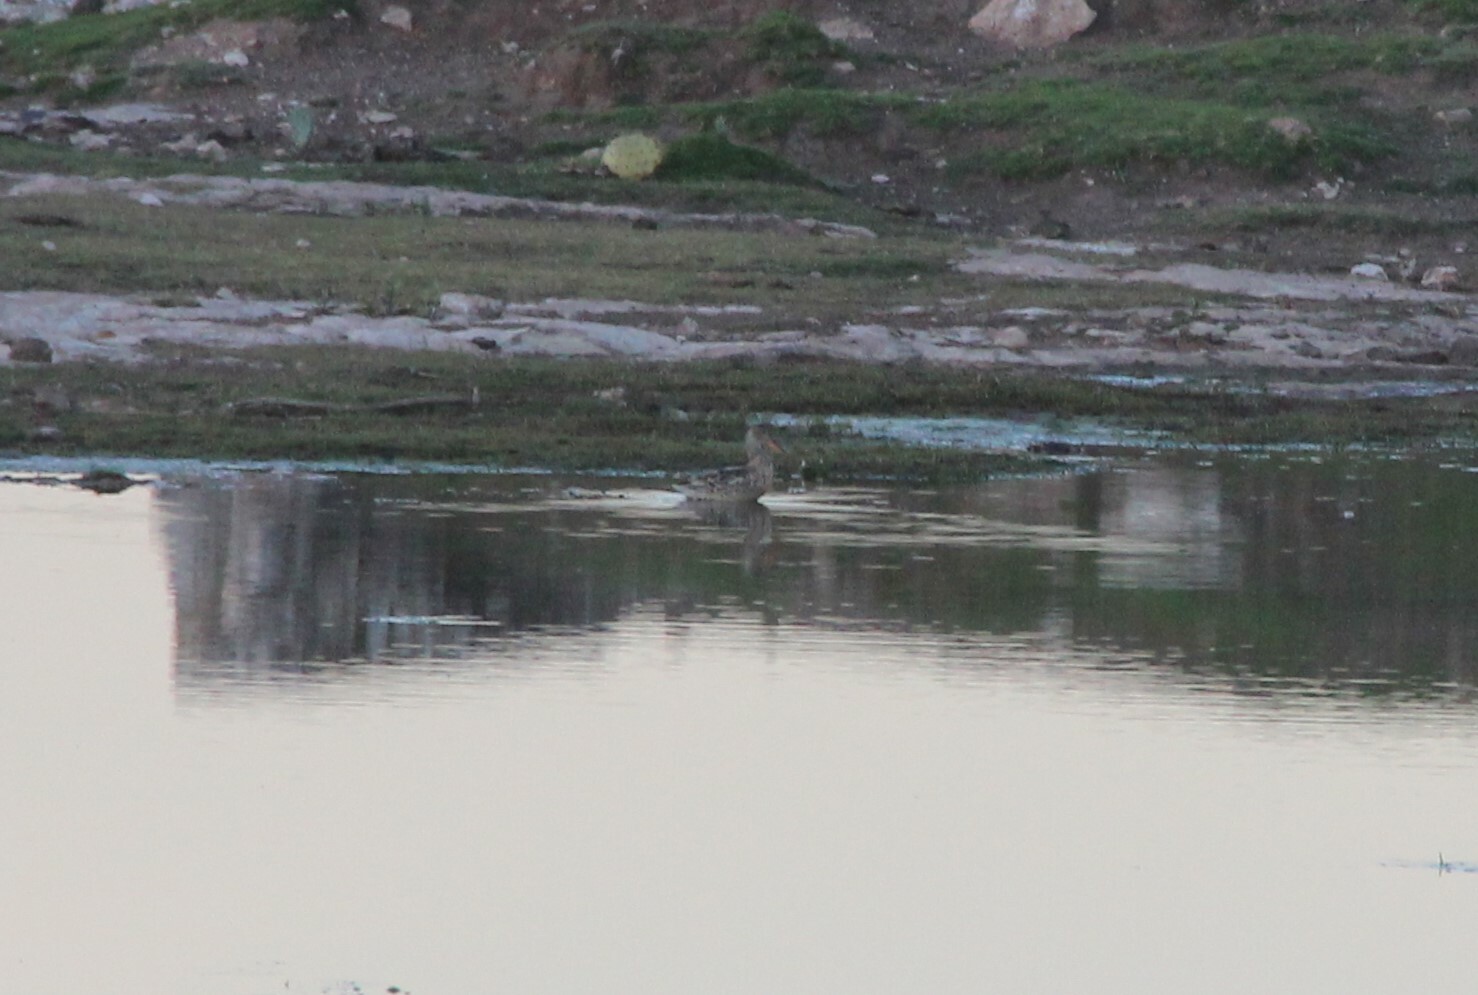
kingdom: Animalia
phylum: Chordata
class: Aves
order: Anseriformes
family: Anatidae
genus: Anas
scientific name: Anas crecca
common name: Eurasian teal
